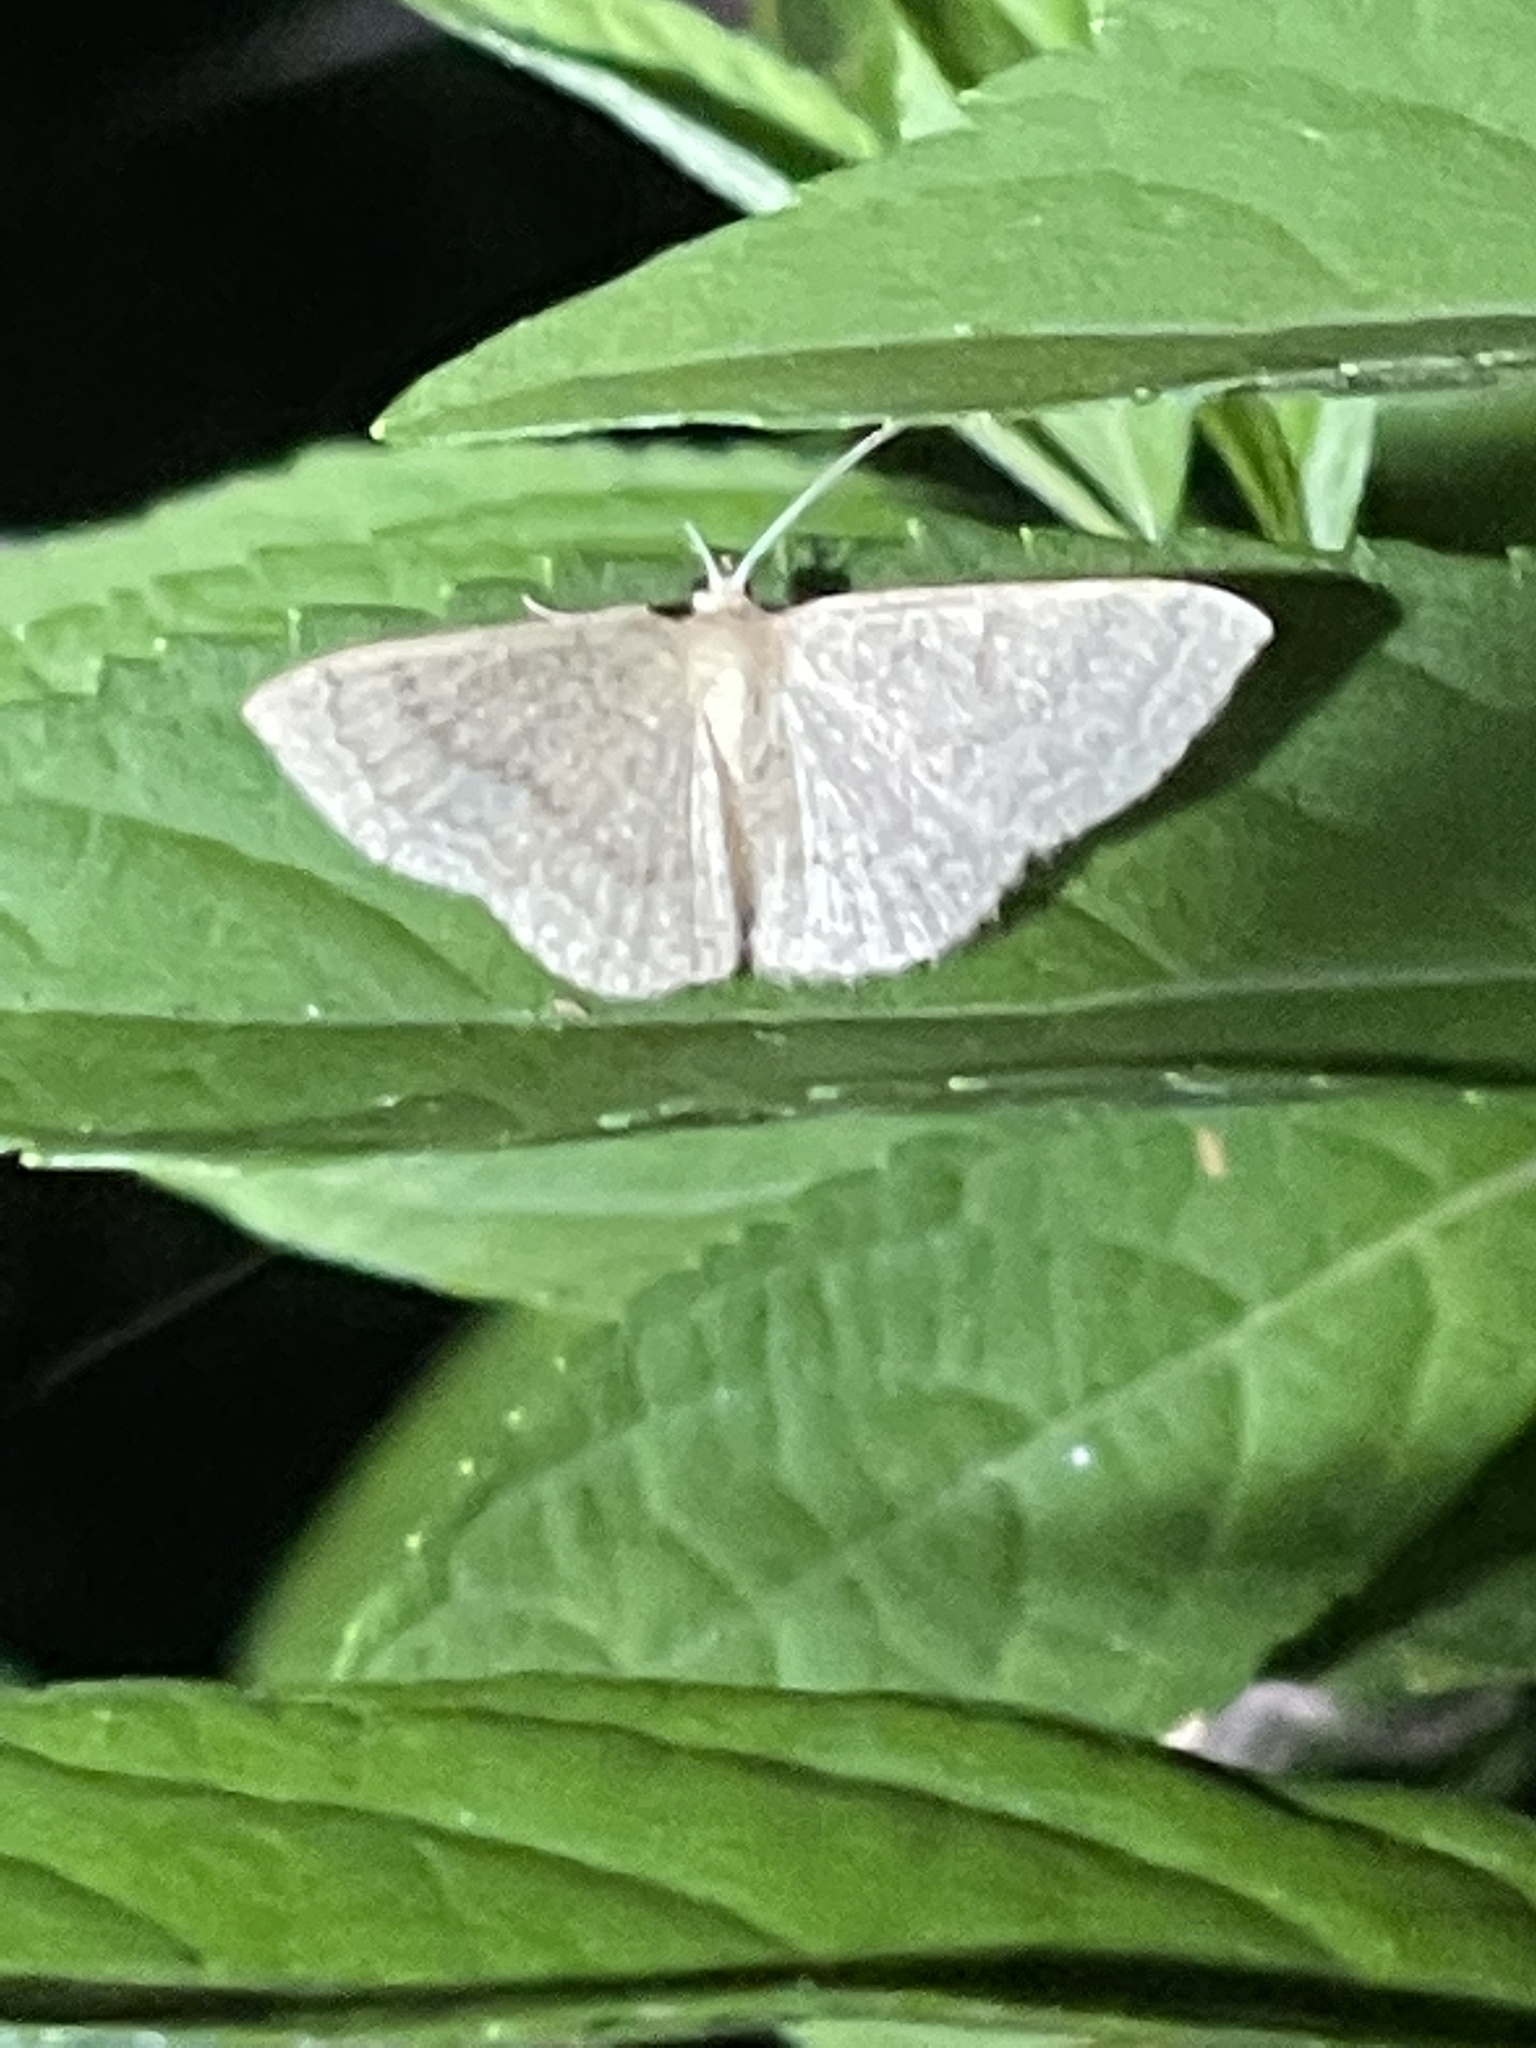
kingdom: Animalia
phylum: Arthropoda
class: Insecta
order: Lepidoptera
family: Geometridae
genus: Pleuroprucha
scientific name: Pleuroprucha insulsaria
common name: Common tan wave
